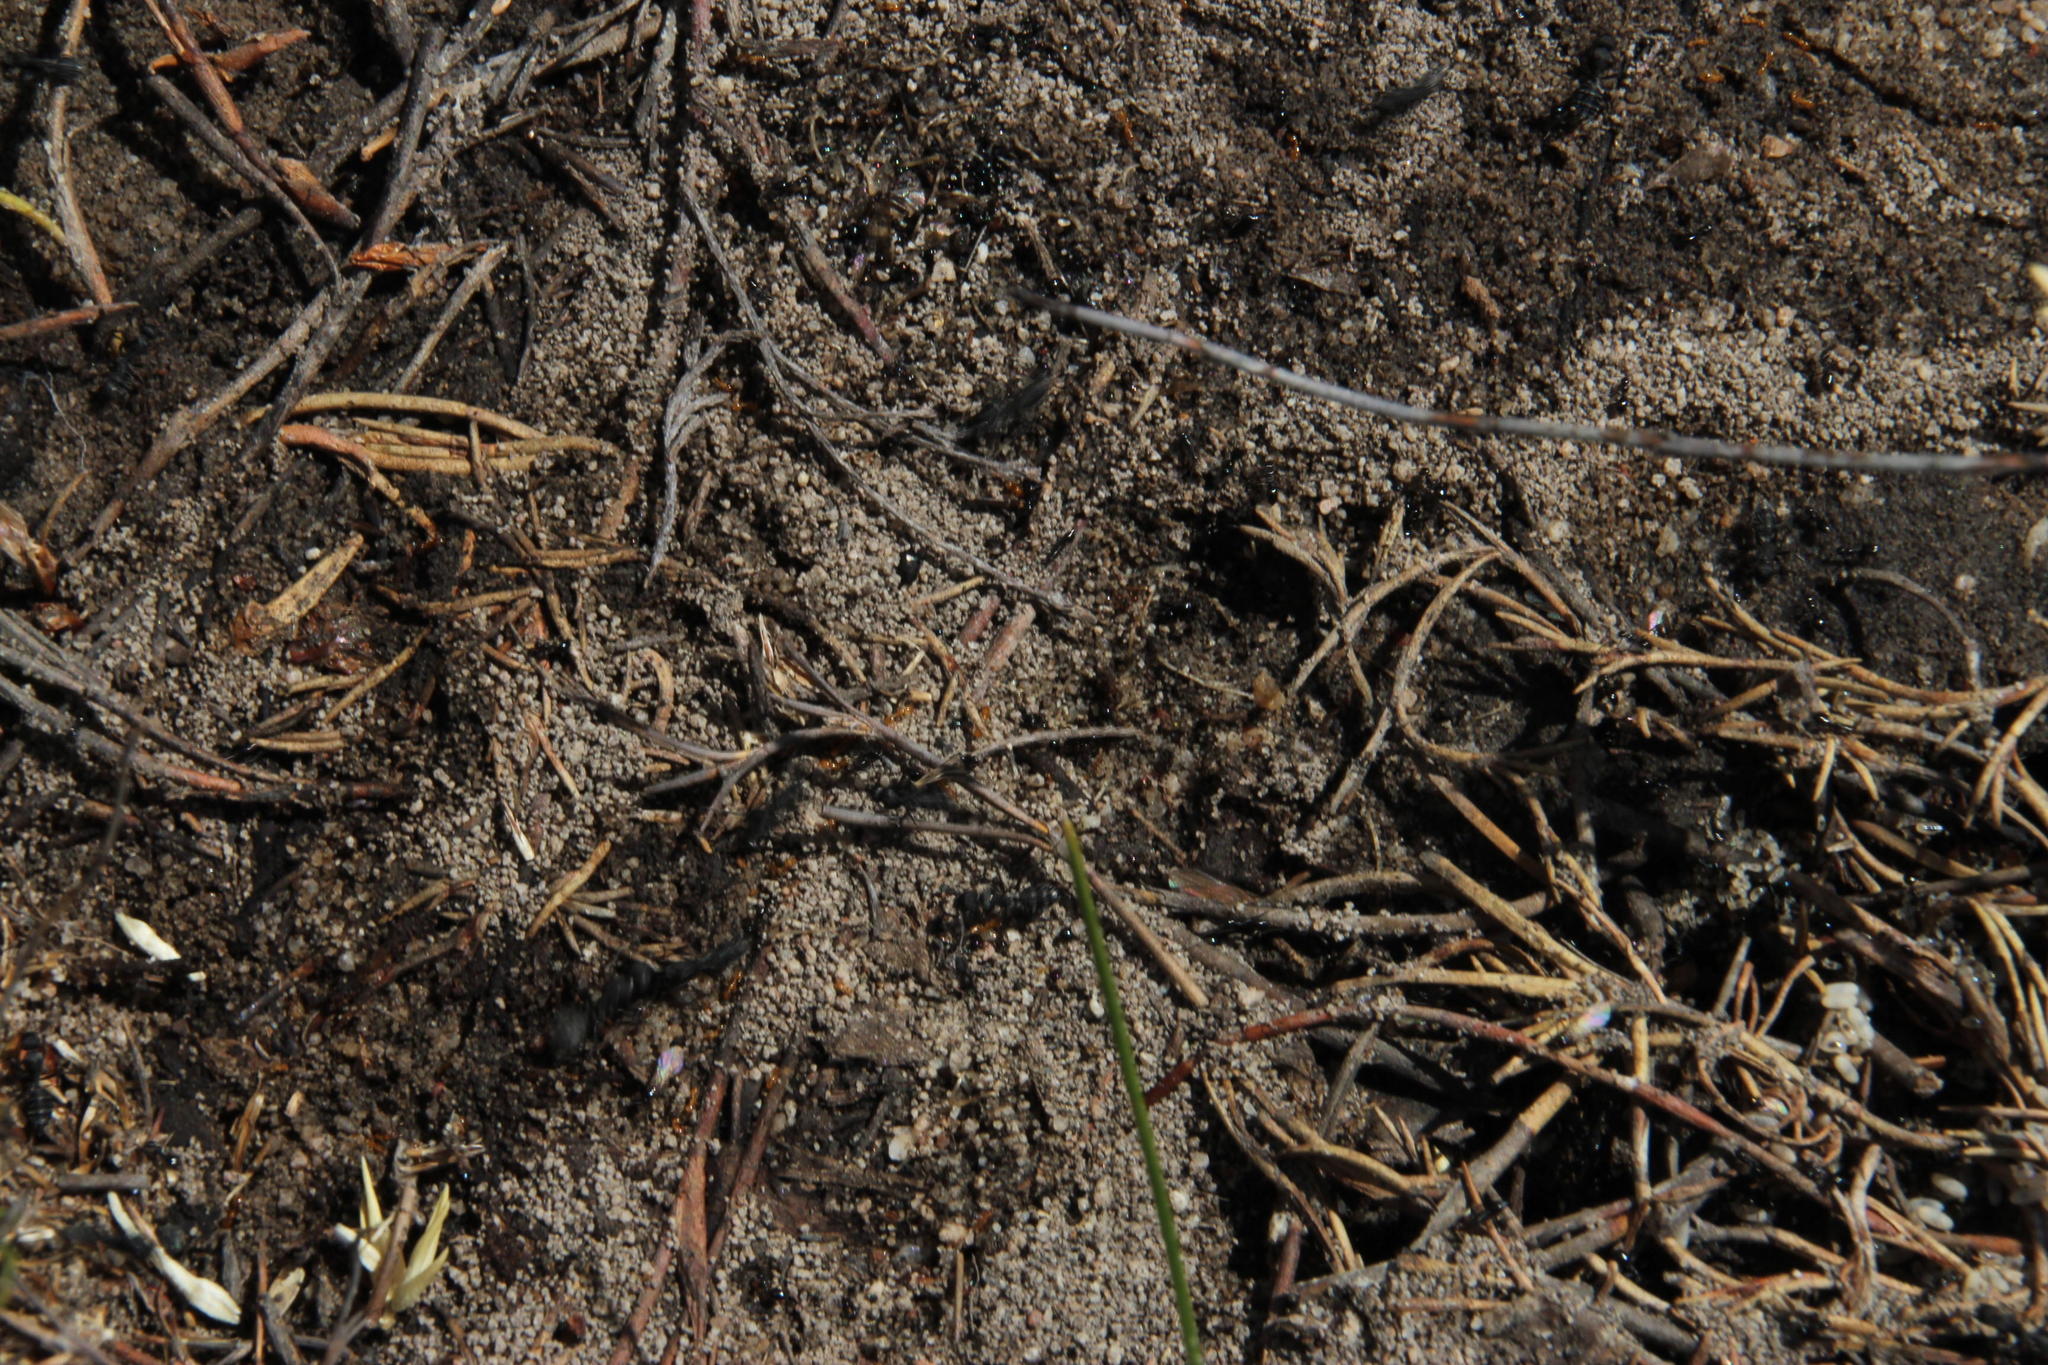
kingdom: Animalia
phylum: Arthropoda
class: Insecta
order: Hymenoptera
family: Formicidae
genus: Camponotus
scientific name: Camponotus niveosetosus
